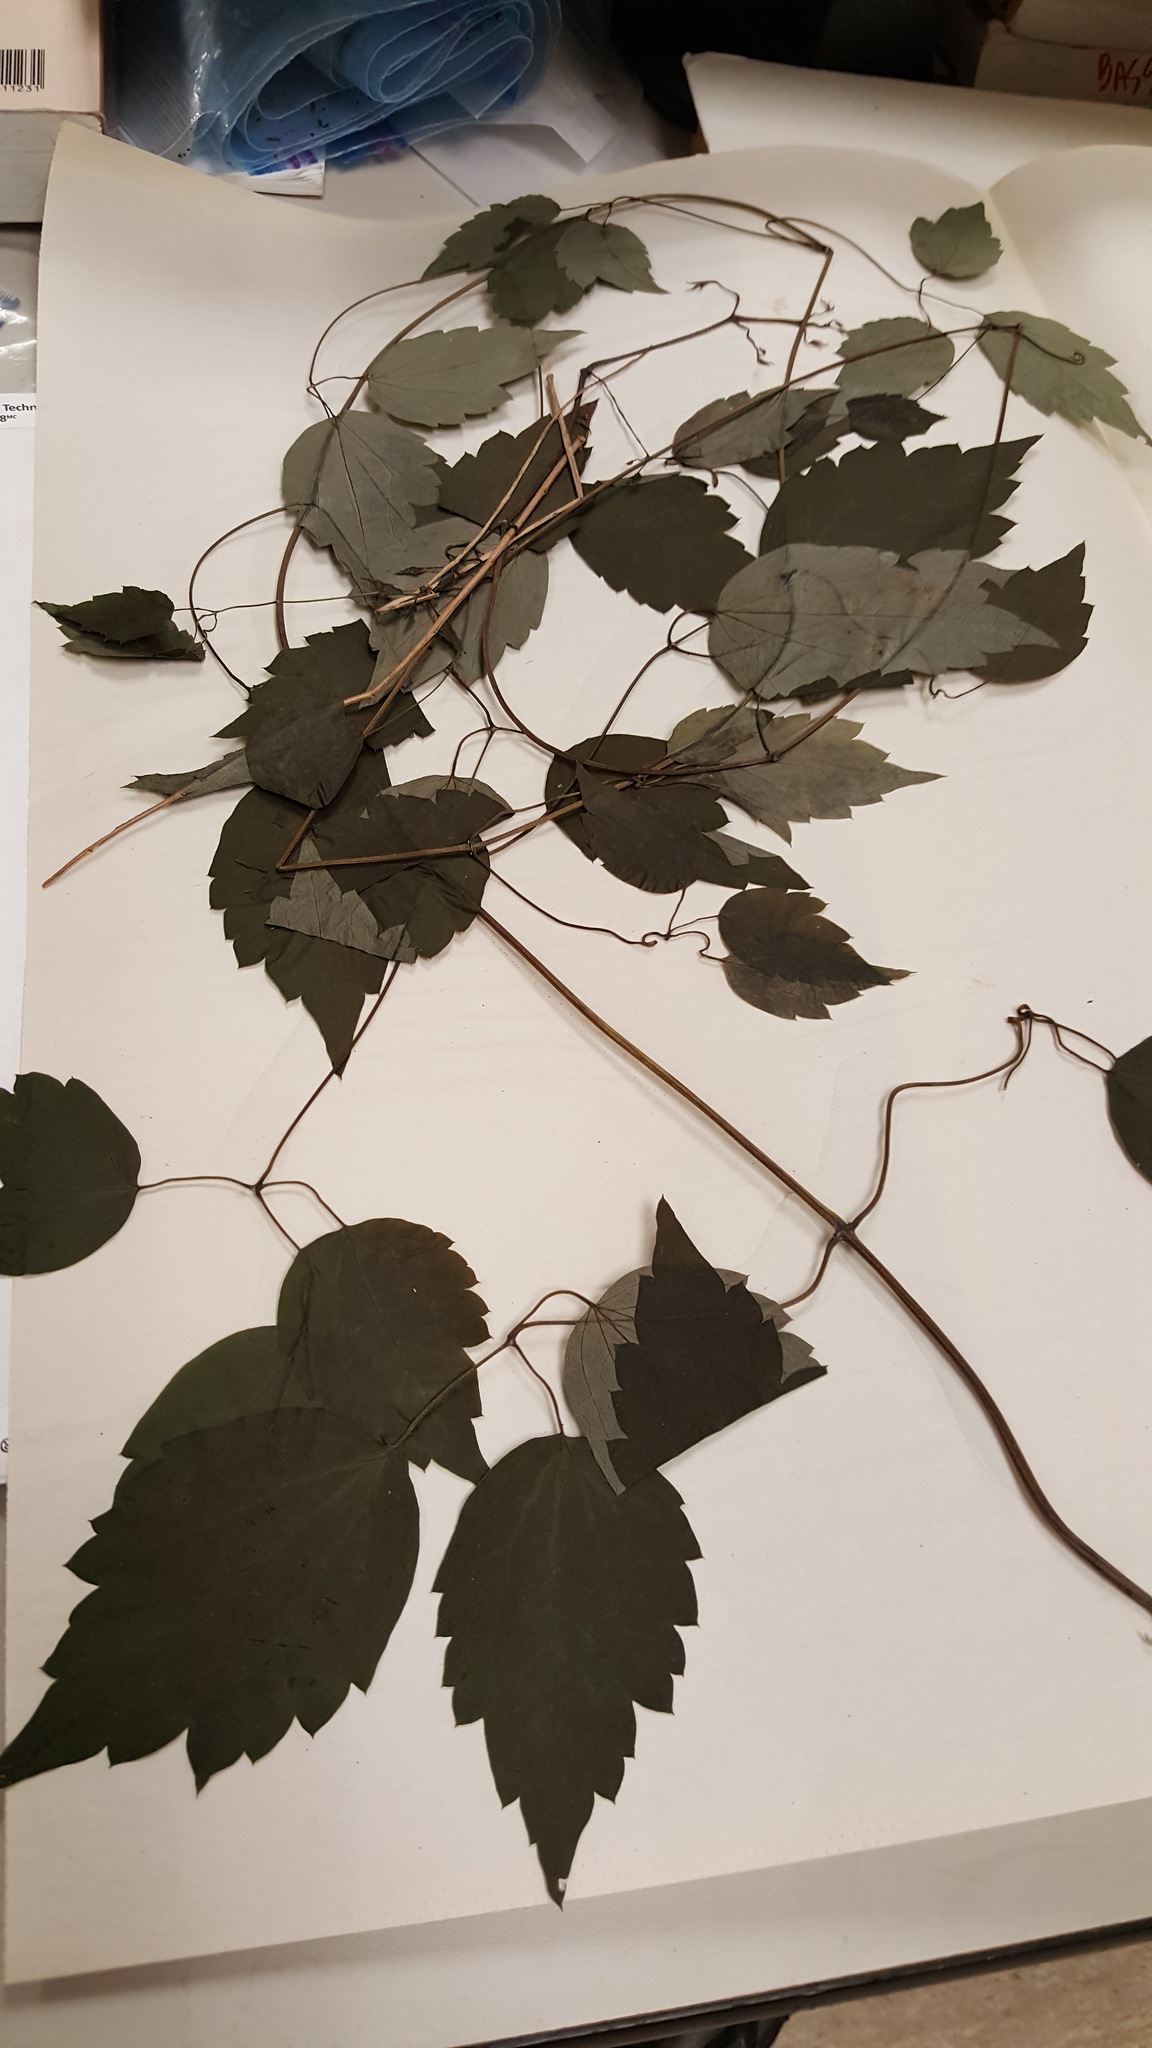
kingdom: Plantae
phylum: Tracheophyta
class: Magnoliopsida
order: Ranunculales
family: Ranunculaceae
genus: Clematis
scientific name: Clematis virginiana
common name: Virgin's-bower
